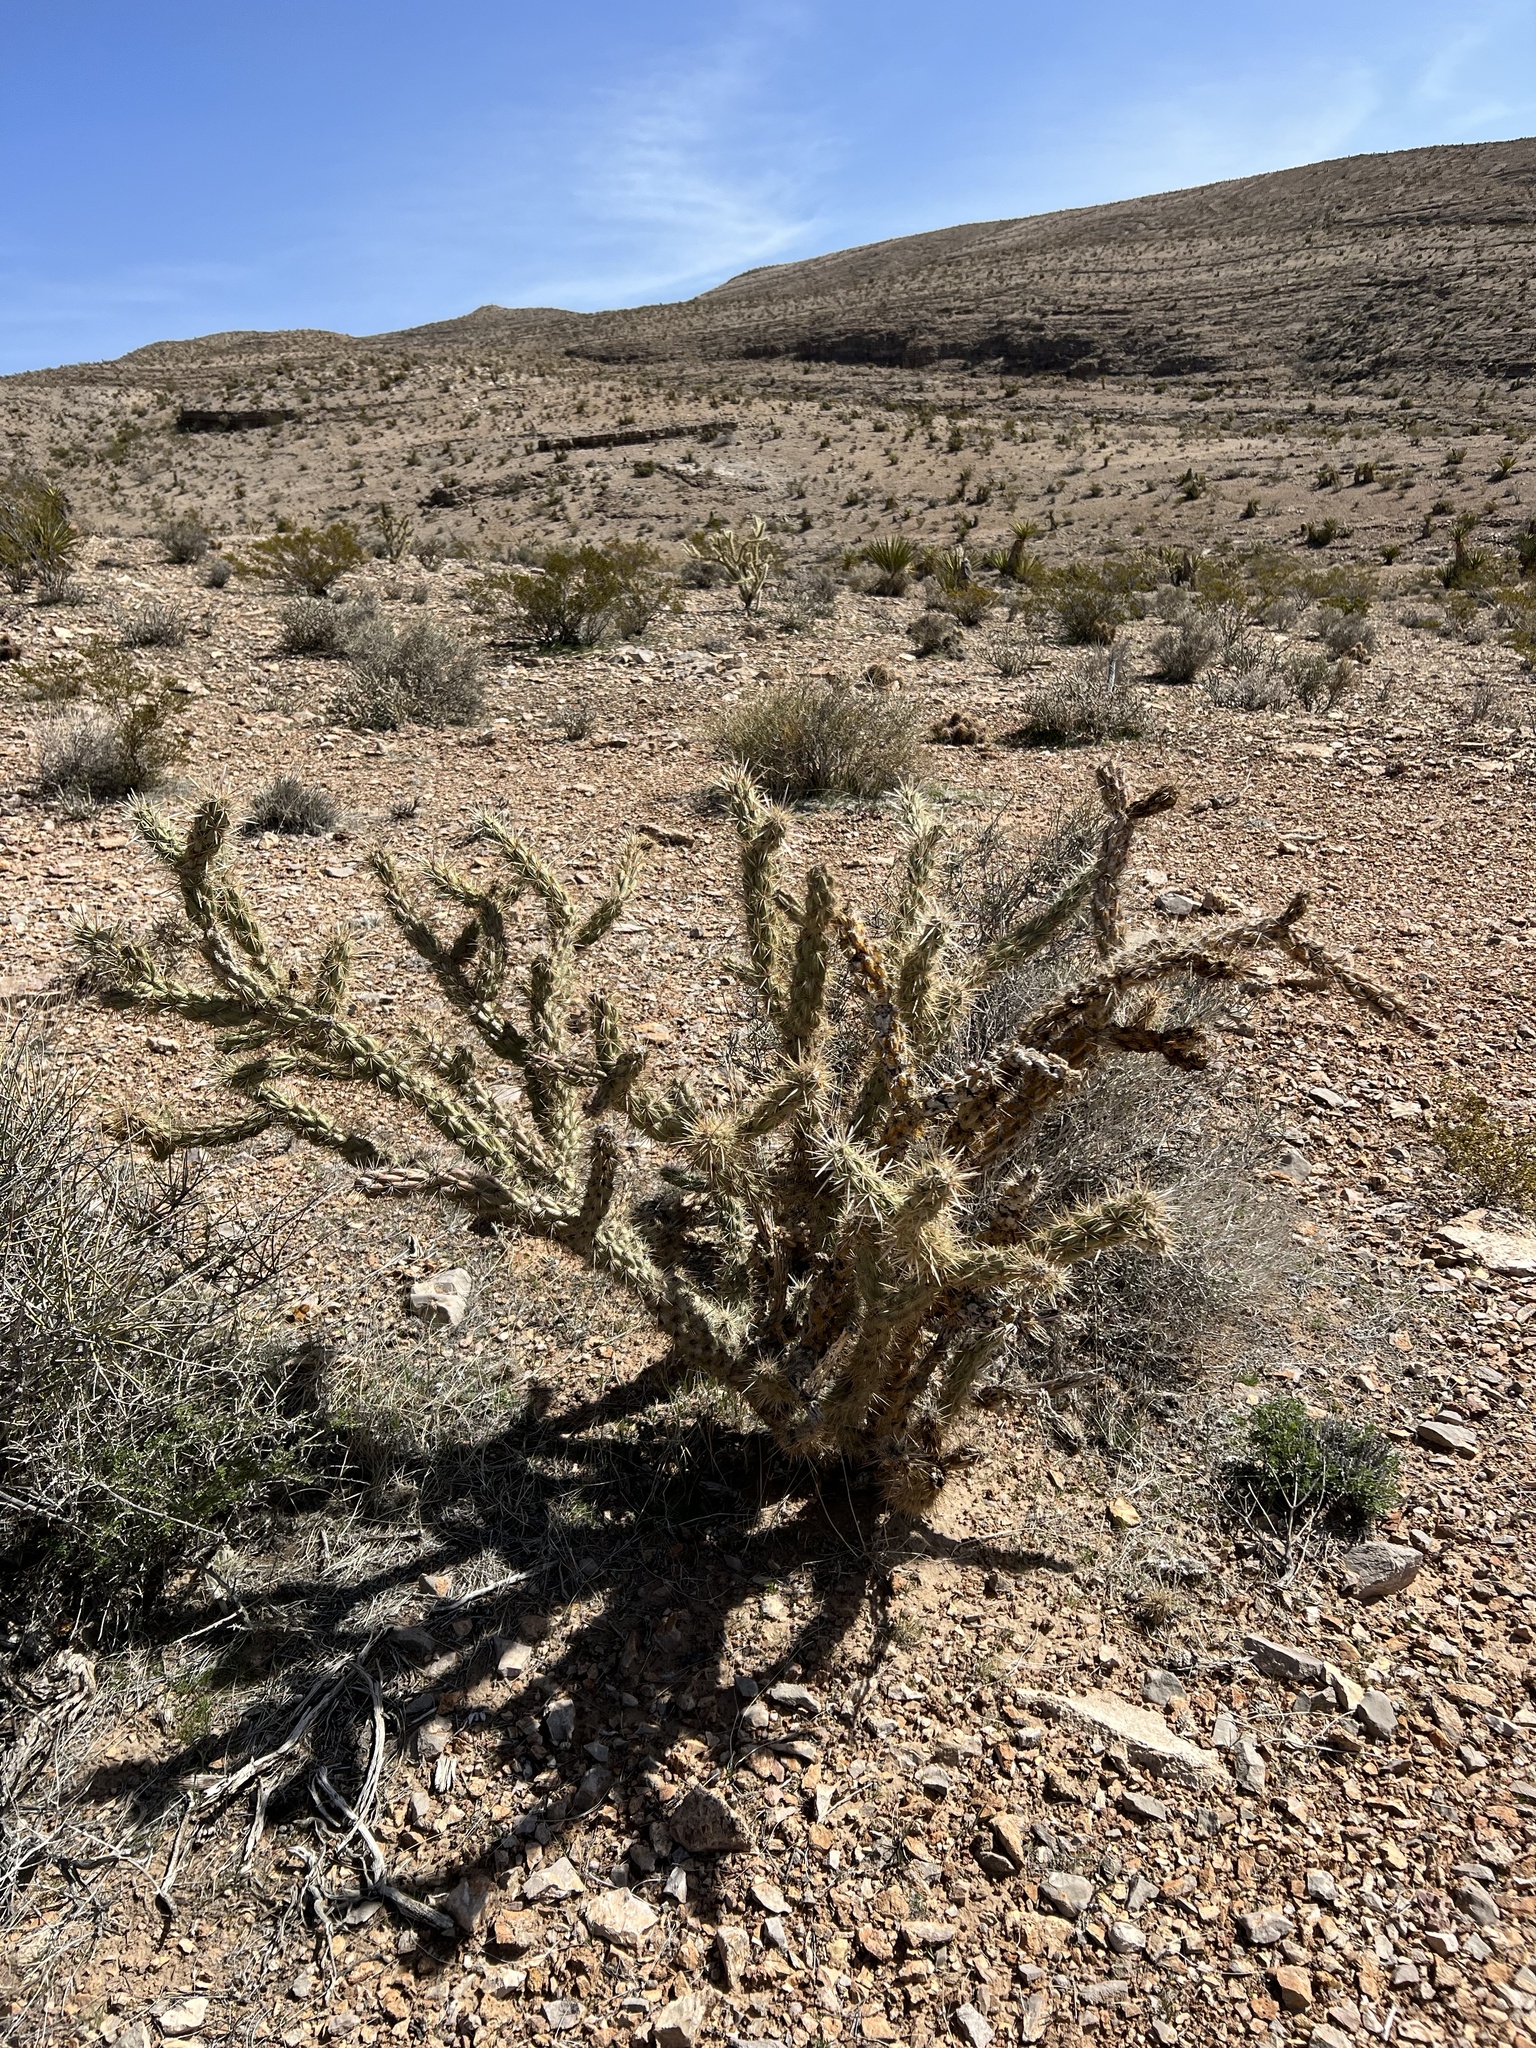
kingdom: Plantae
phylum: Tracheophyta
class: Magnoliopsida
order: Caryophyllales
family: Cactaceae
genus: Cylindropuntia
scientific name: Cylindropuntia acanthocarpa
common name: Buckhorn cholla
